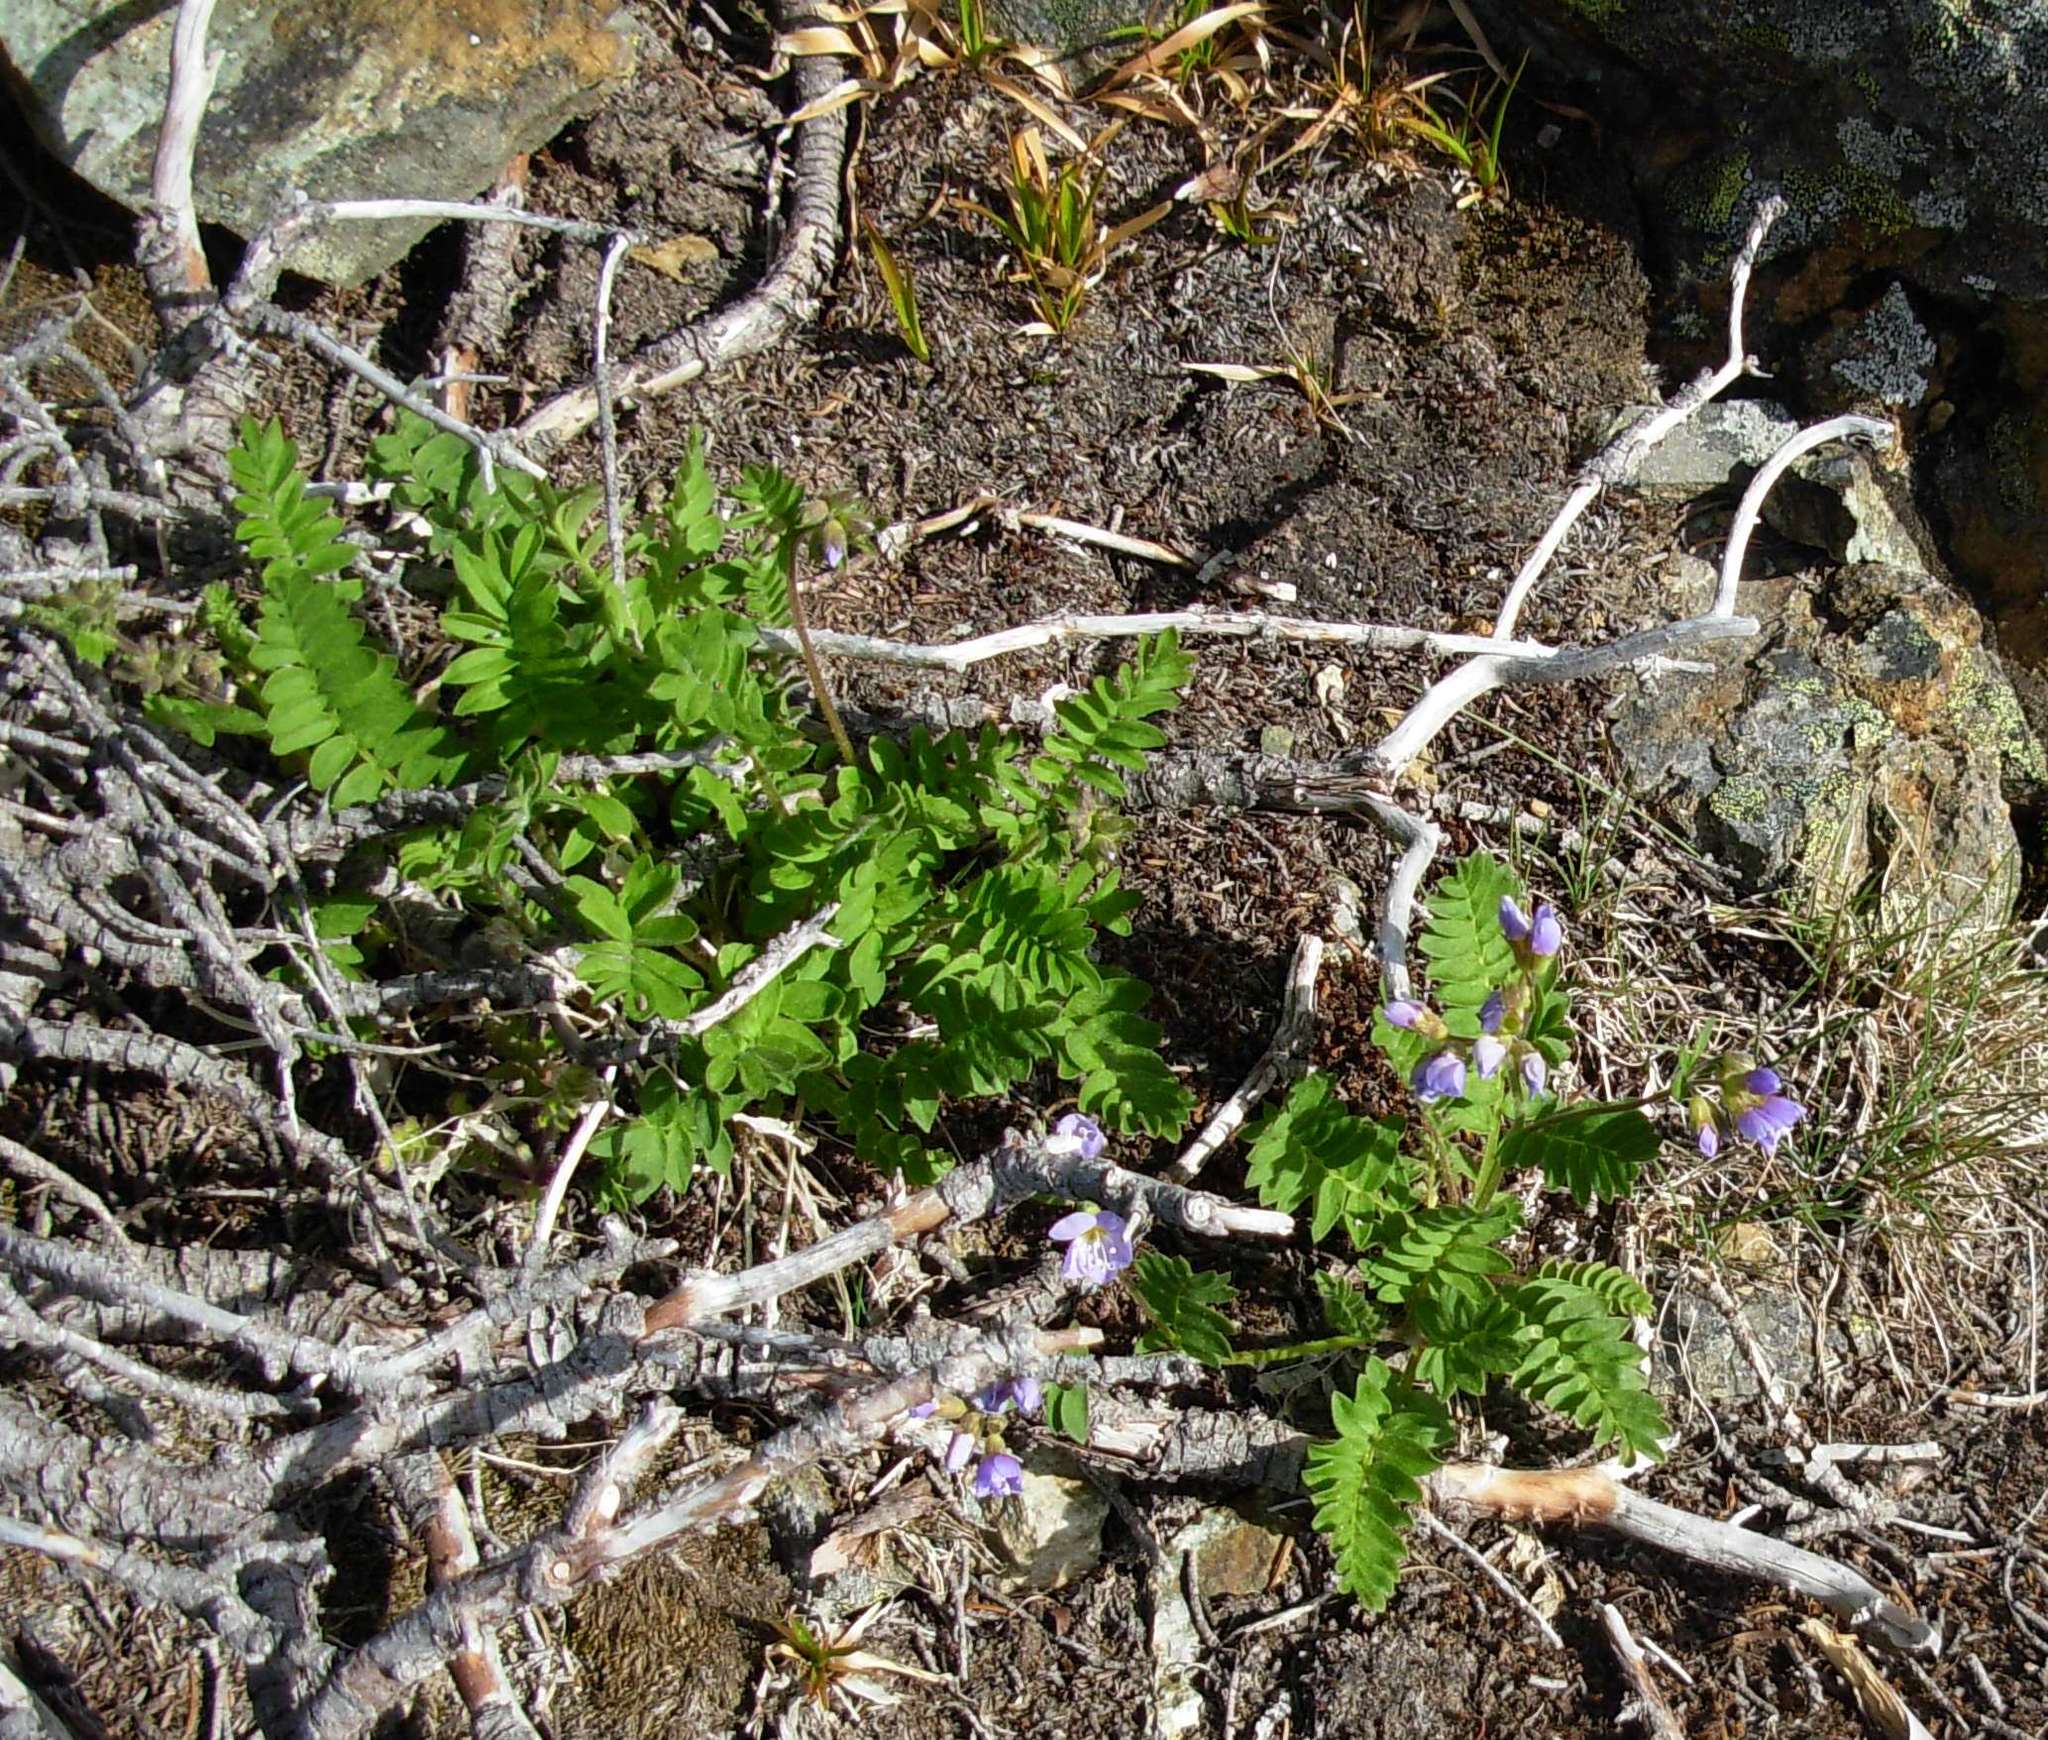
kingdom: Plantae
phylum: Tracheophyta
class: Magnoliopsida
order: Ericales
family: Polemoniaceae
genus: Polemonium
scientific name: Polemonium californicum
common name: California jacob's ladder
